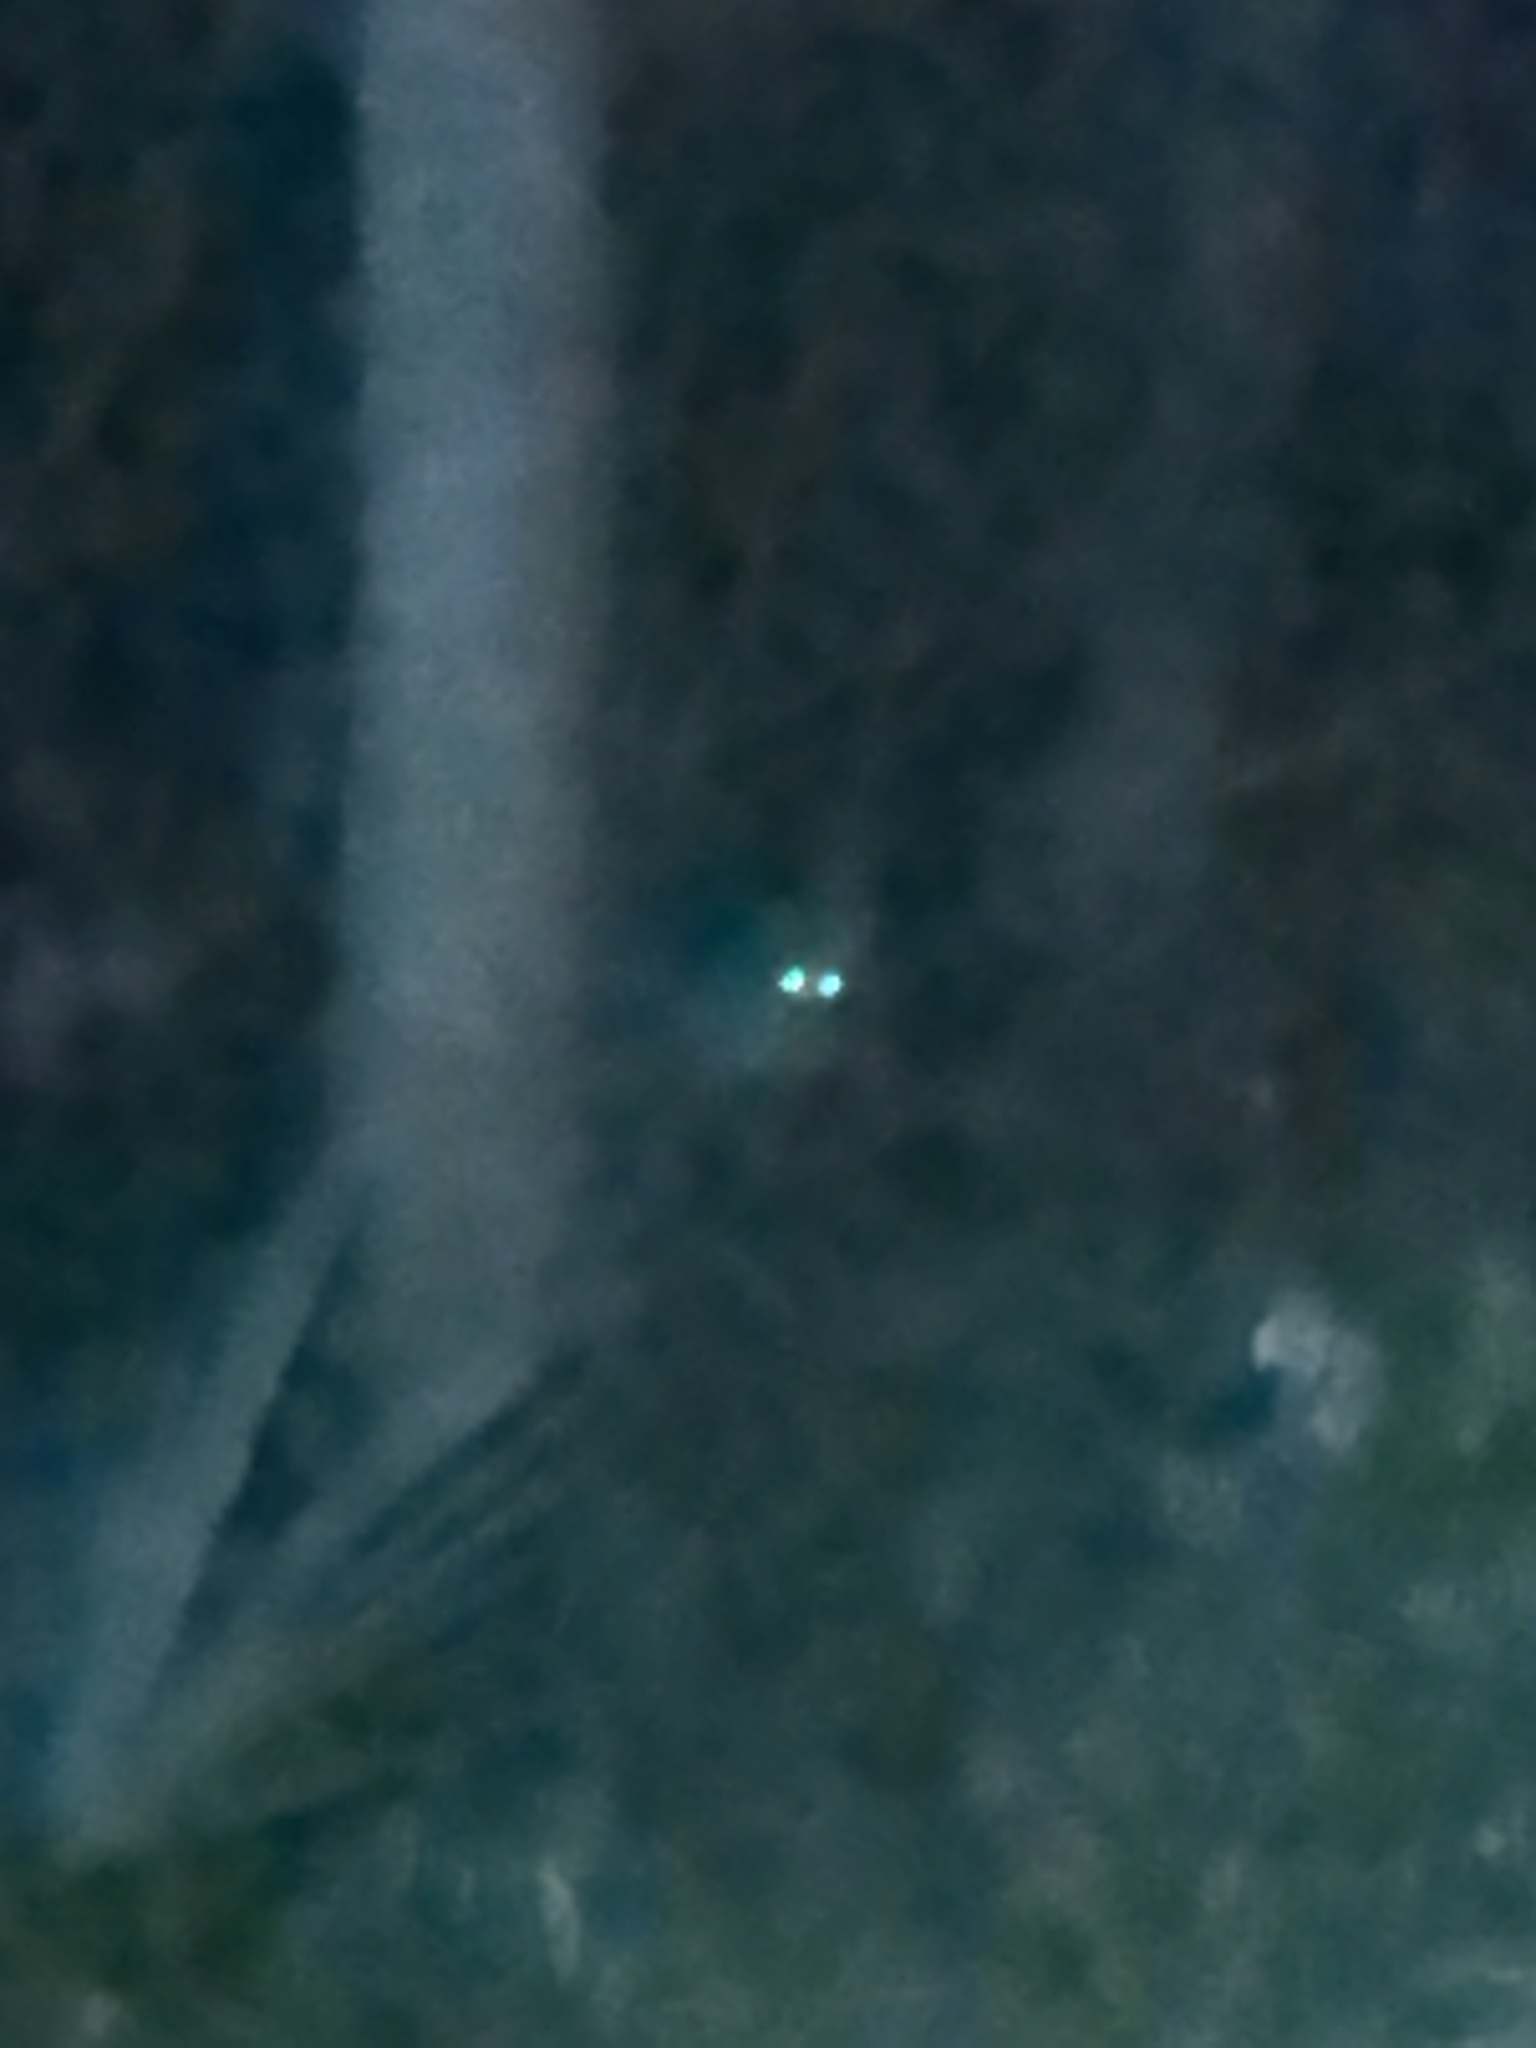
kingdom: Animalia
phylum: Chordata
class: Mammalia
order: Carnivora
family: Canidae
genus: Canis
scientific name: Canis latrans
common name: Coyote
